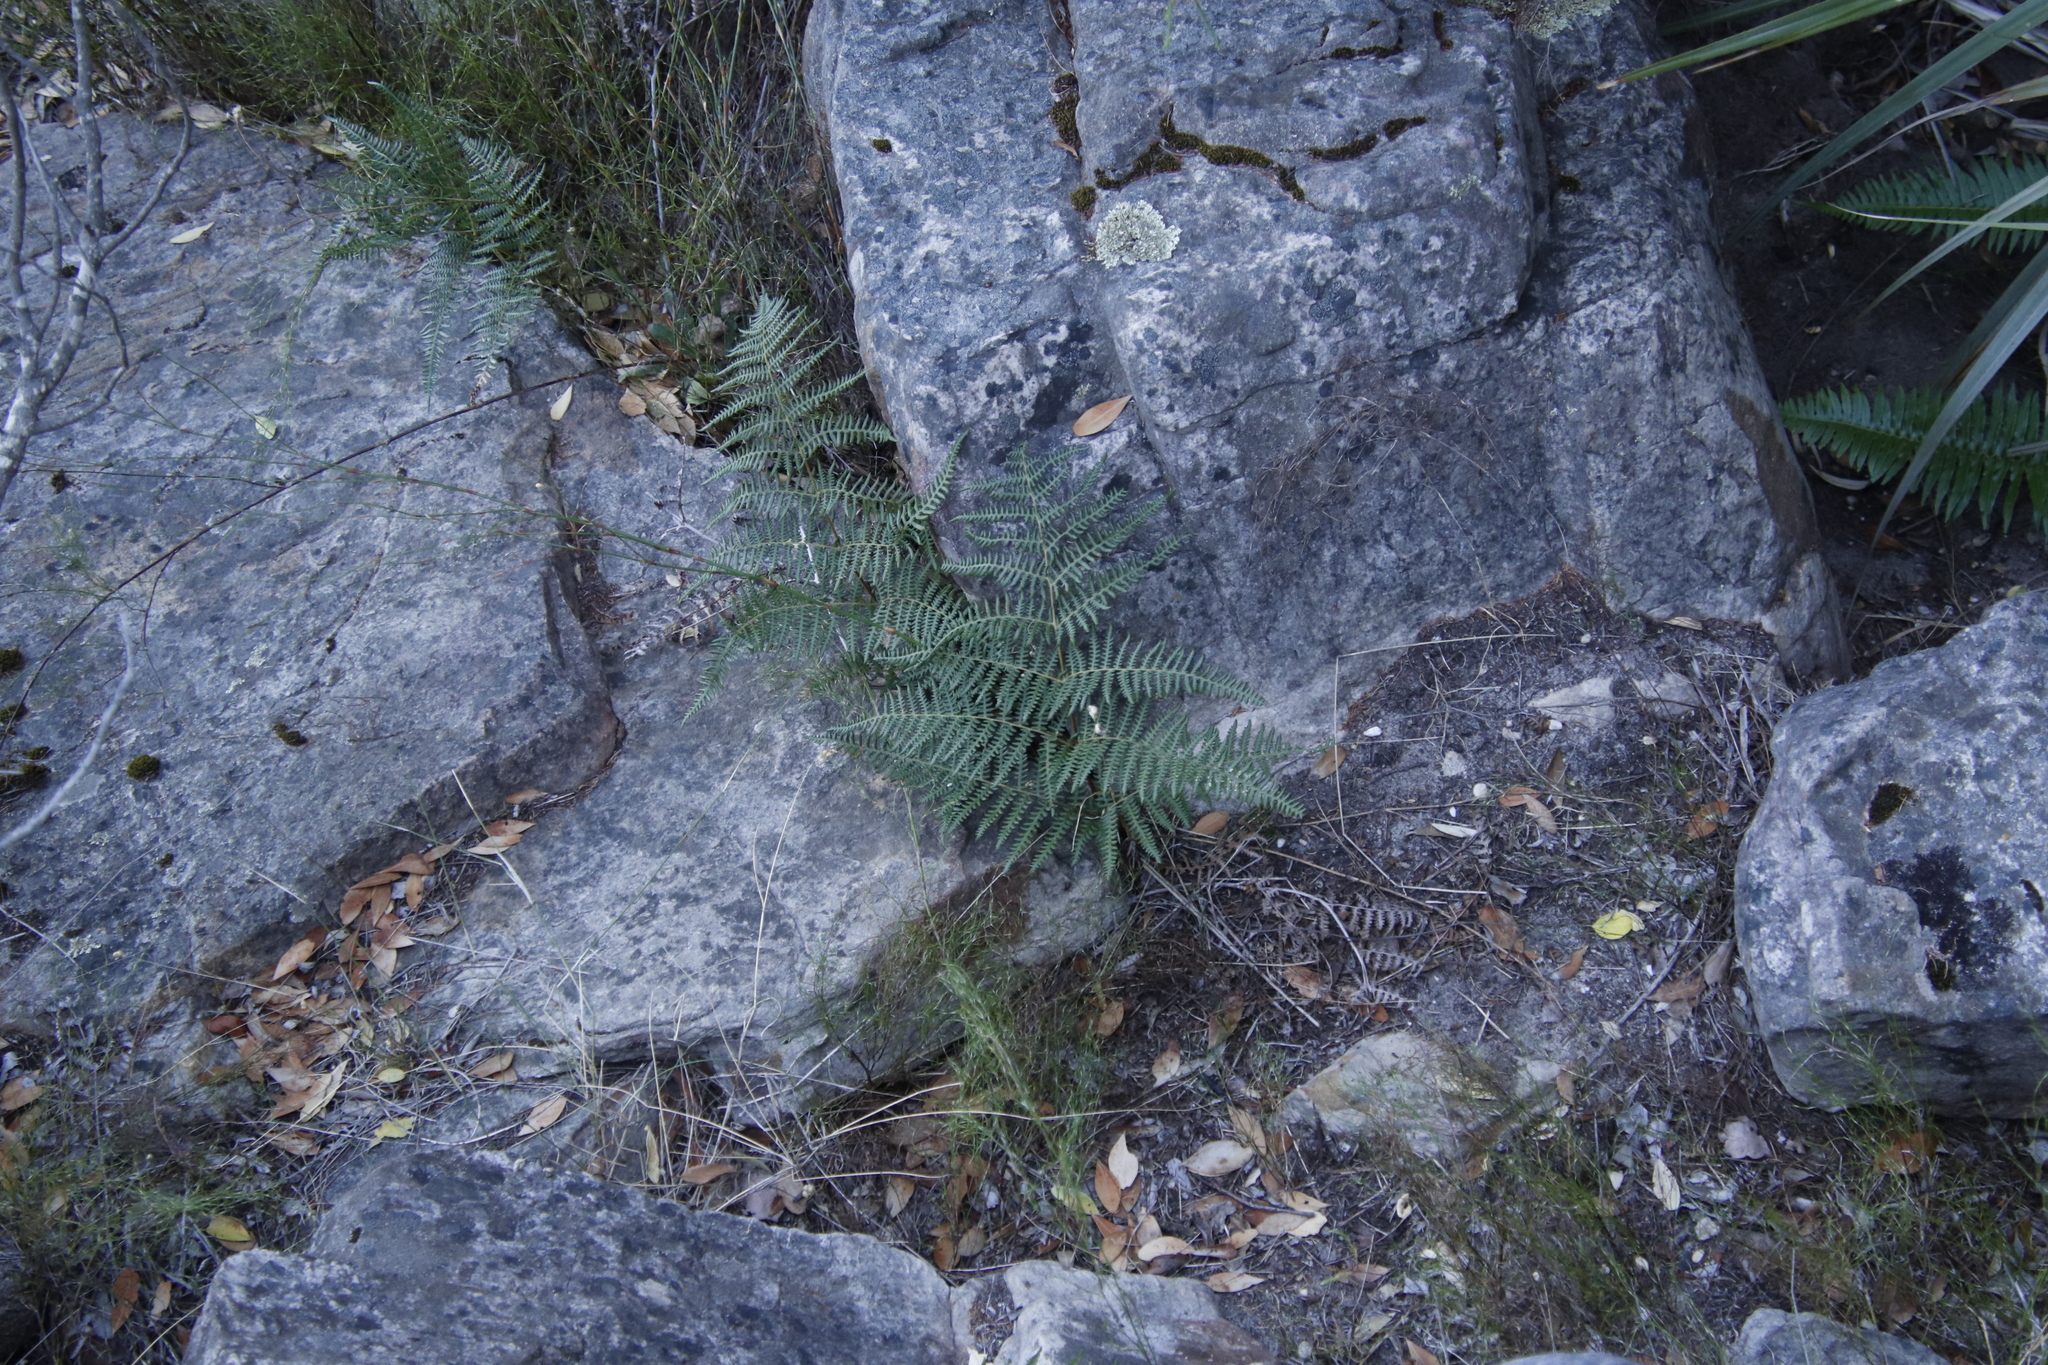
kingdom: Plantae
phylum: Tracheophyta
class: Polypodiopsida
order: Polypodiales
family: Dennstaedtiaceae
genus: Pteridium
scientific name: Pteridium aquilinum
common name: Bracken
